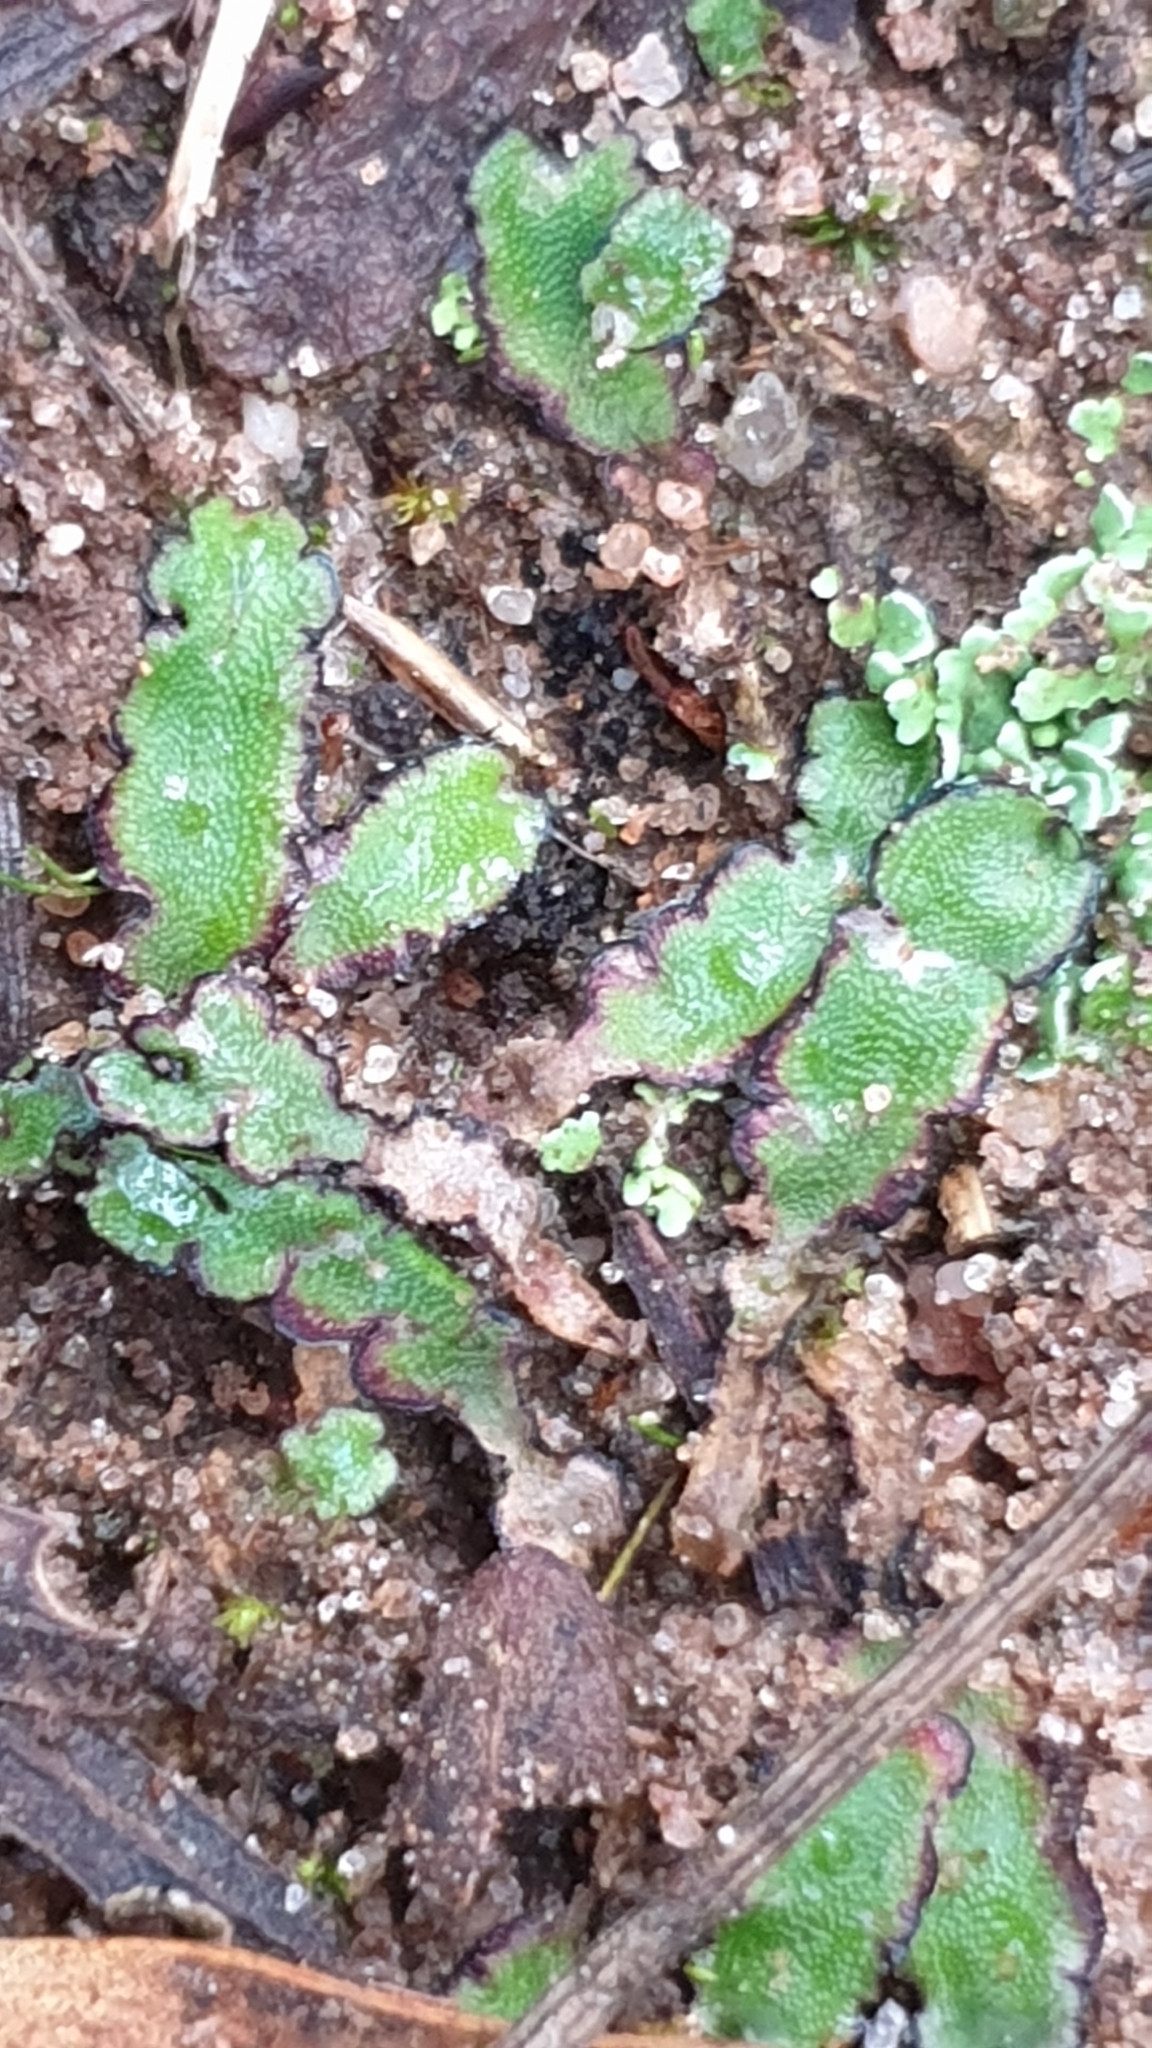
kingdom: Plantae
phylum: Marchantiophyta
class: Marchantiopsida
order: Marchantiales
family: Aytoniaceae
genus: Asterella
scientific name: Asterella drummondii
